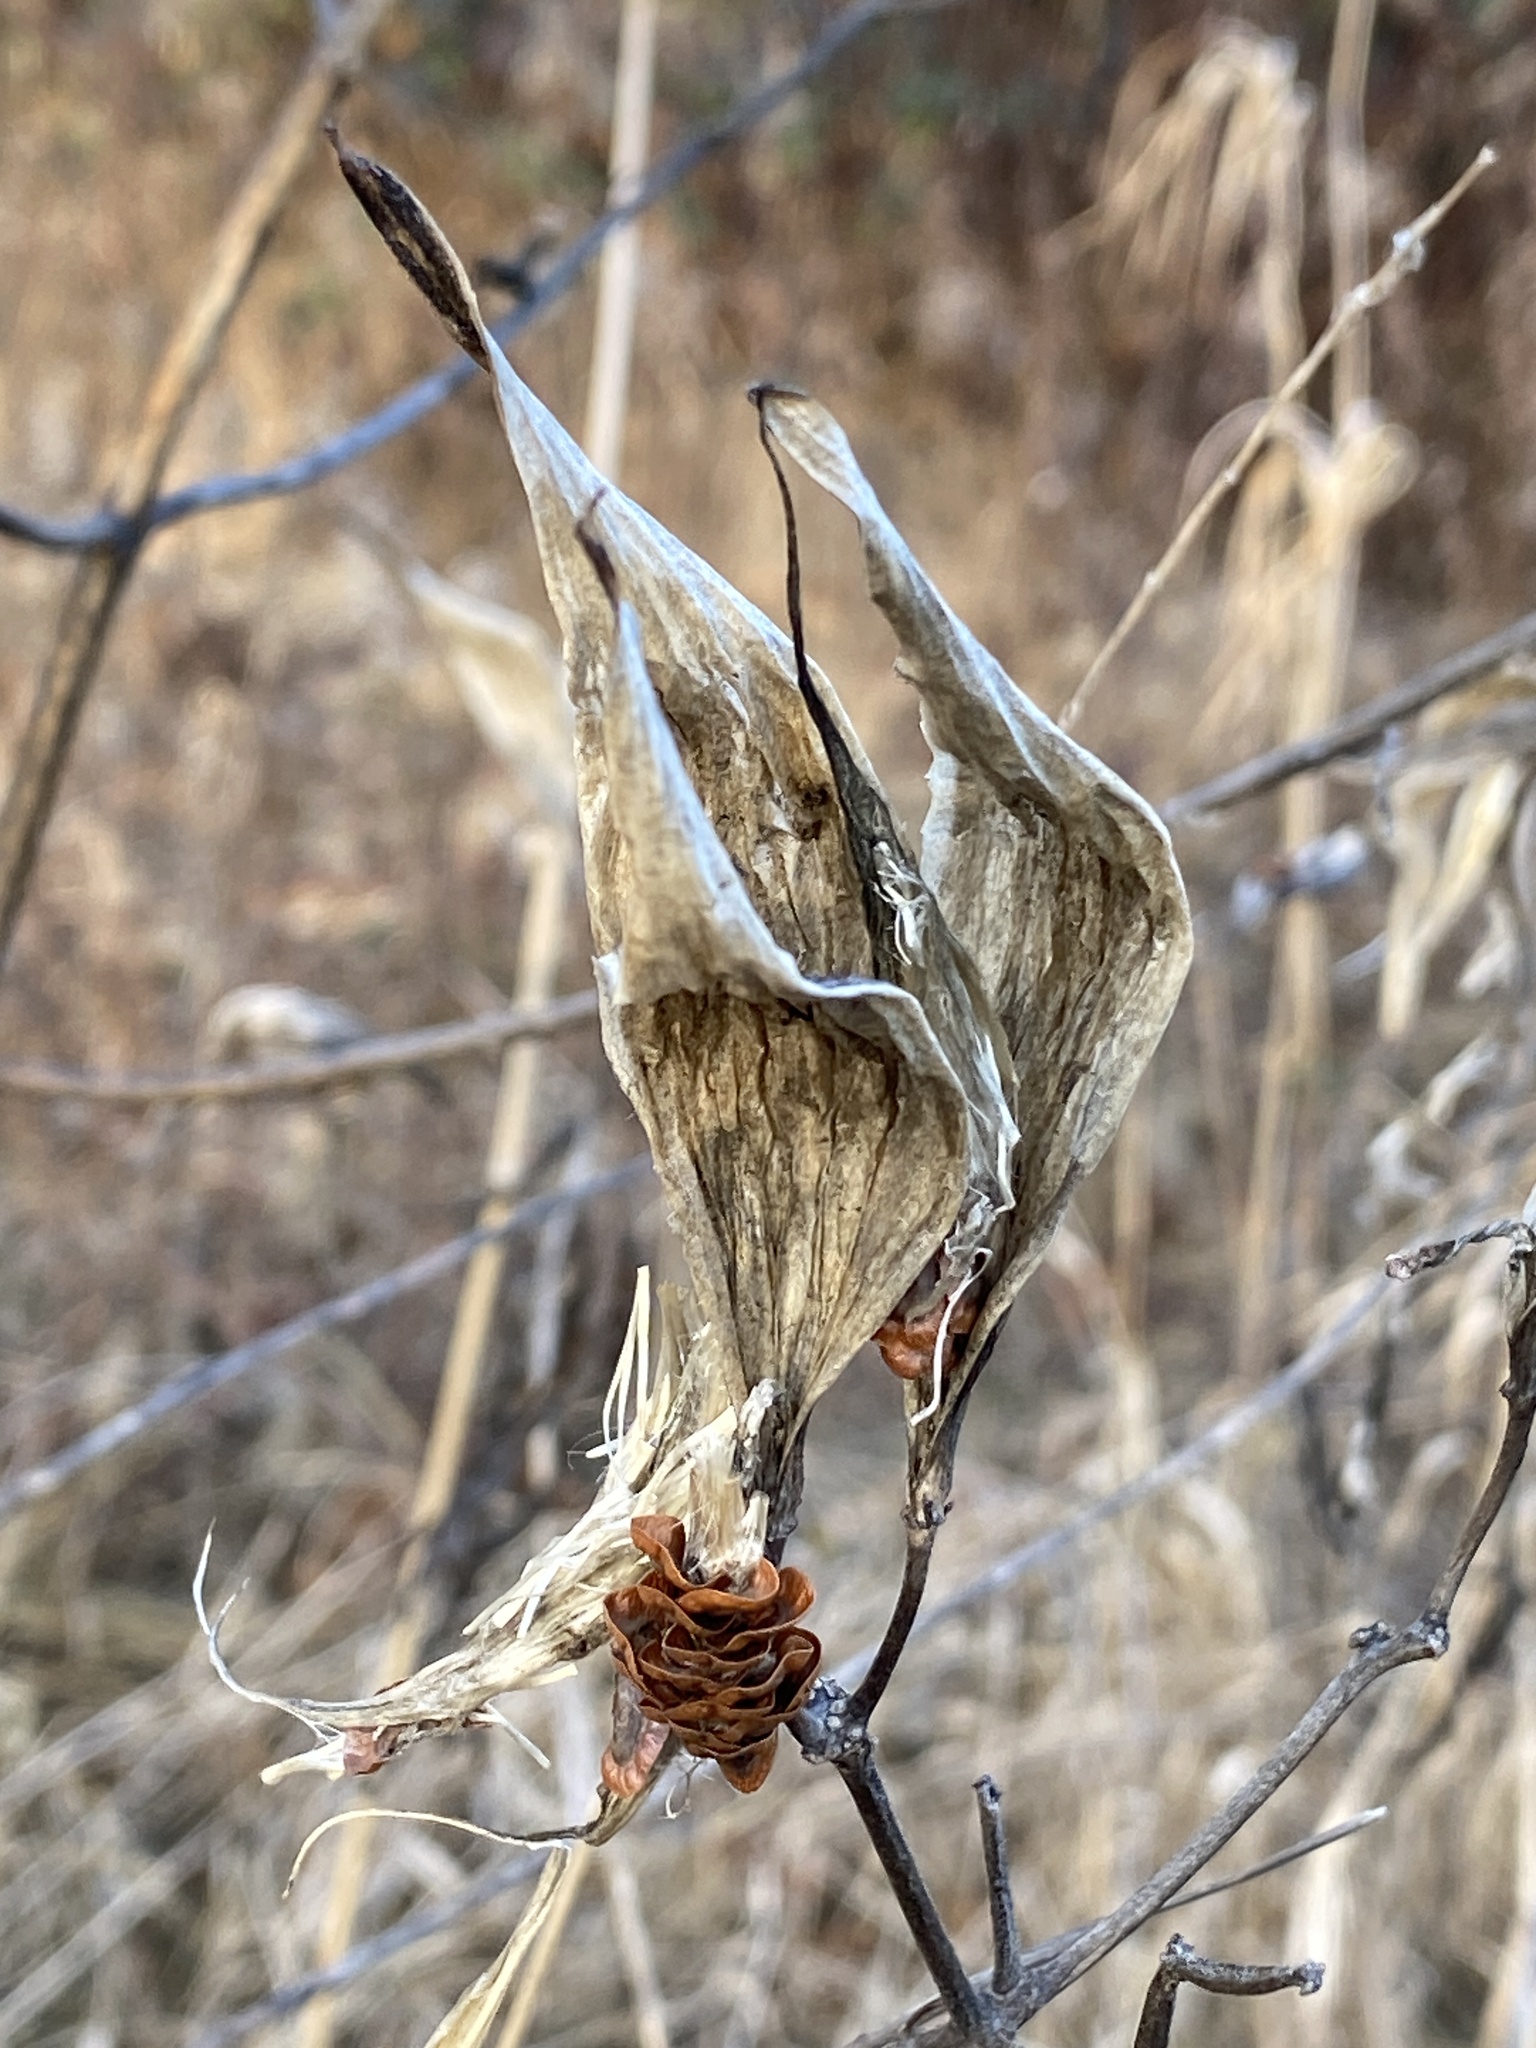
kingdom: Plantae
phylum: Tracheophyta
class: Magnoliopsida
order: Gentianales
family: Apocynaceae
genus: Asclepias
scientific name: Asclepias incarnata
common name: Swamp milkweed
